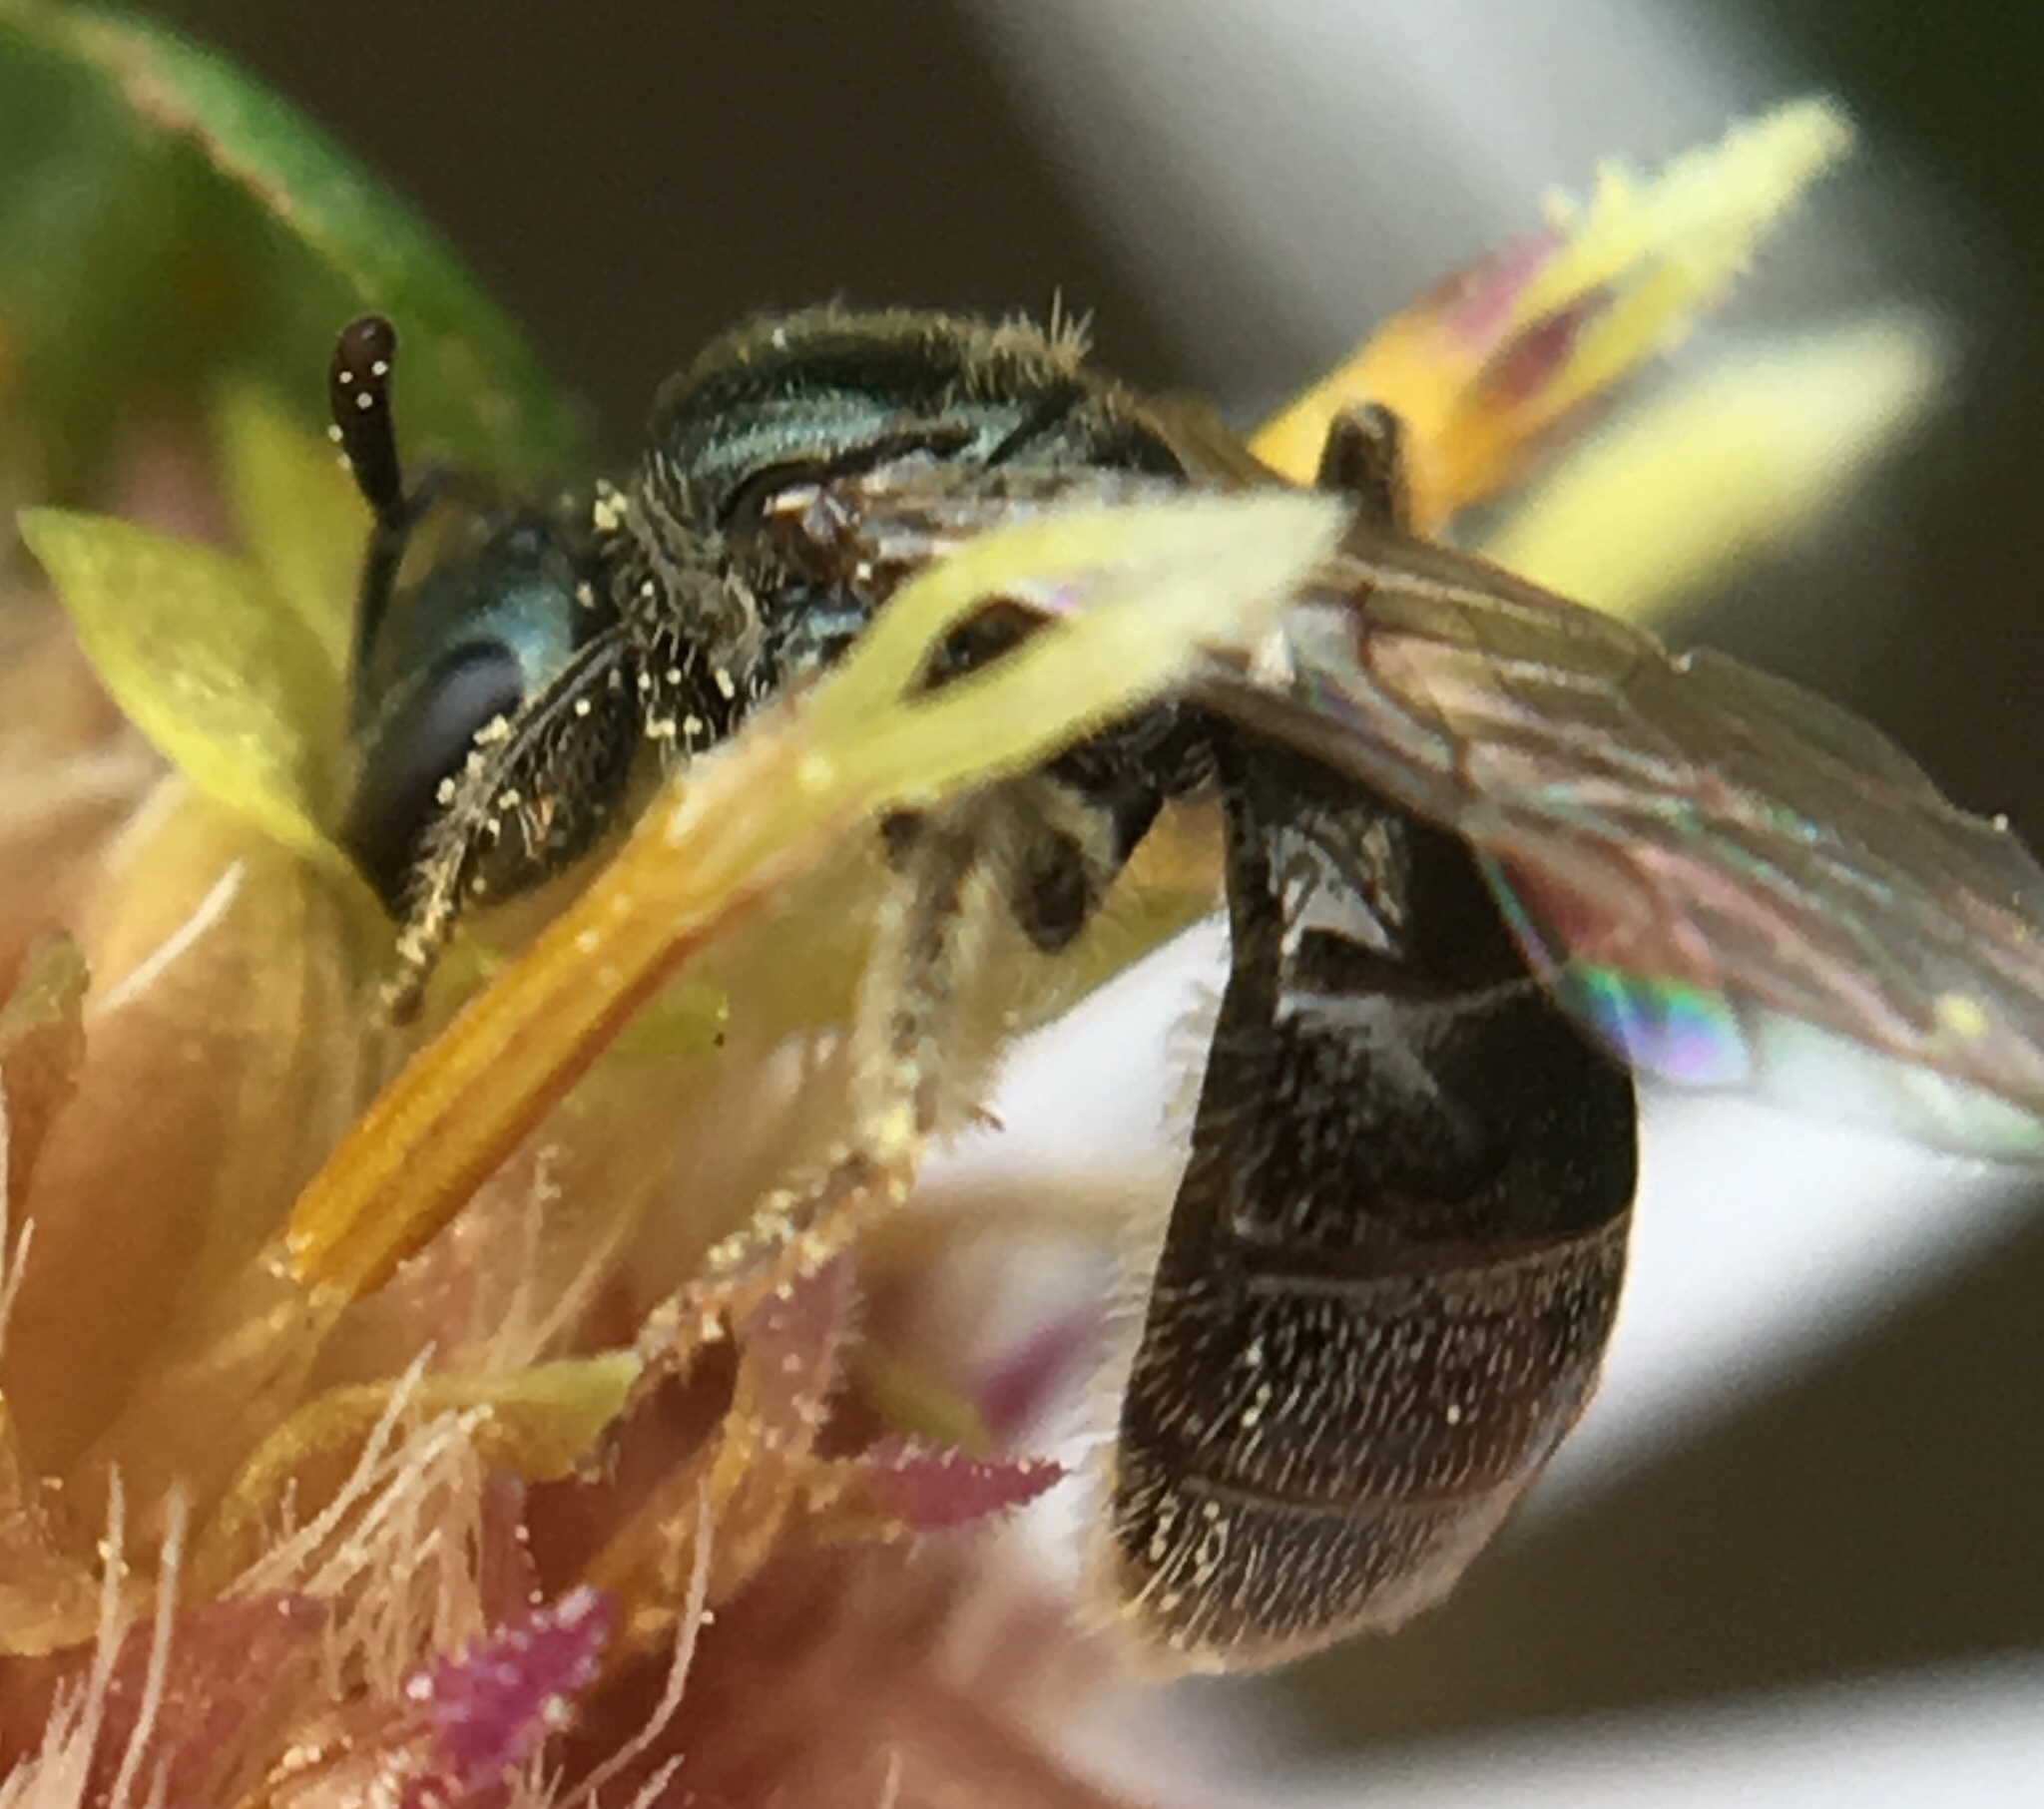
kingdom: Animalia
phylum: Arthropoda
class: Insecta
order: Hymenoptera
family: Halictidae
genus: Lasioglossum
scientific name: Lasioglossum imitatum
